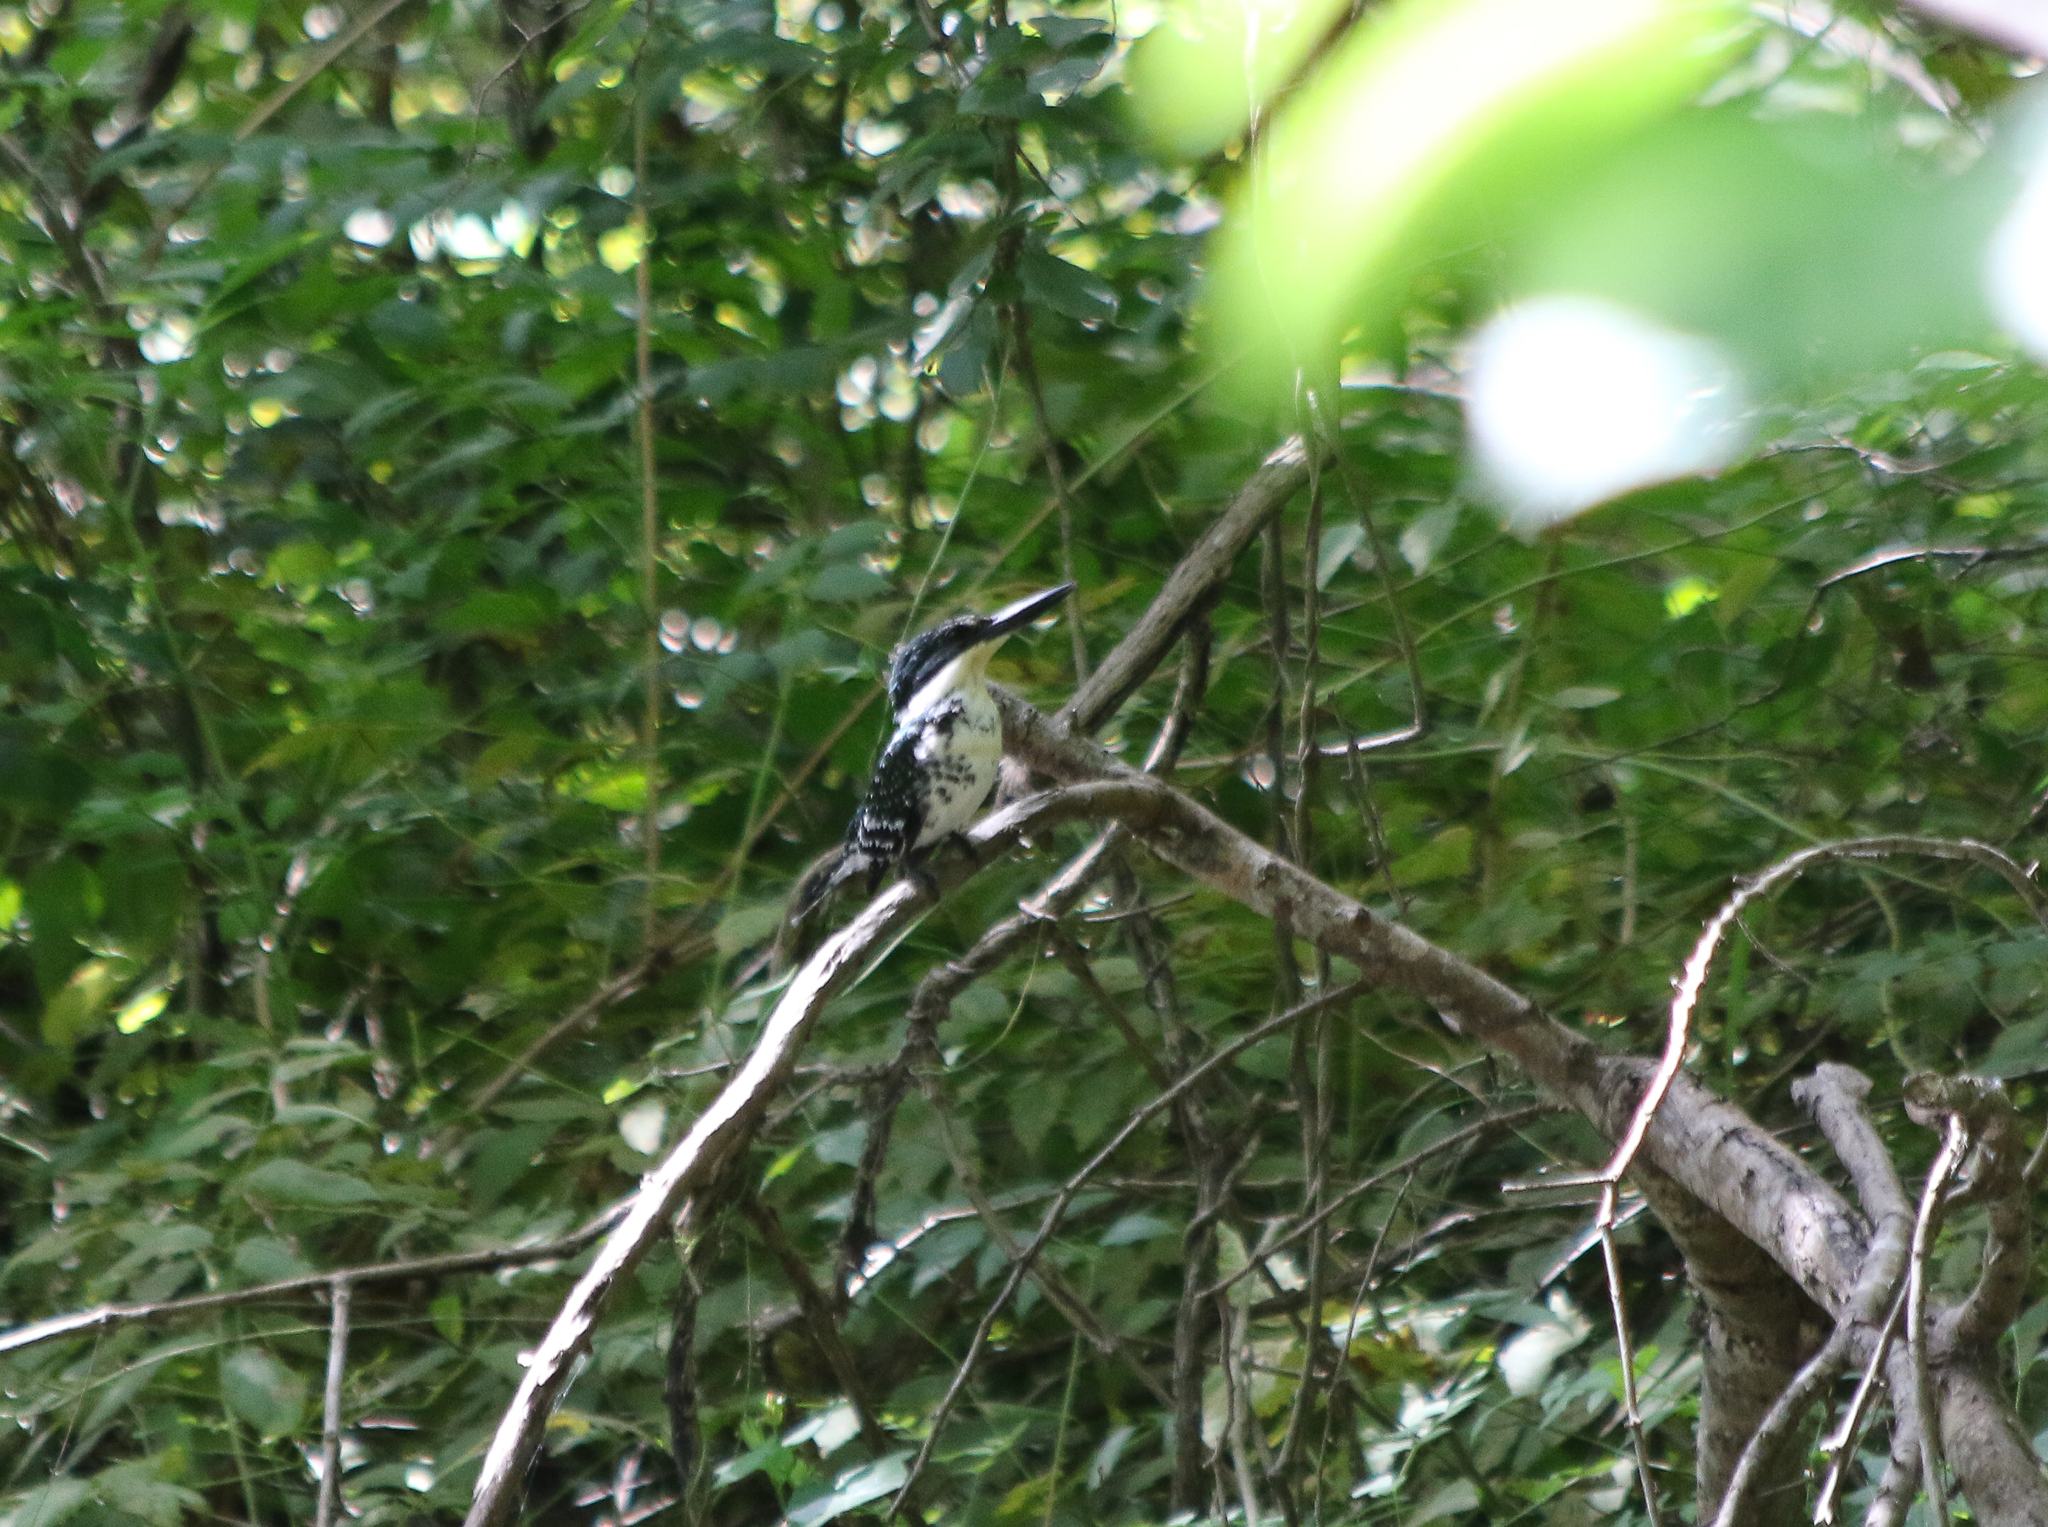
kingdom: Animalia
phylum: Chordata
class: Aves
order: Coraciiformes
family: Alcedinidae
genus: Chloroceryle
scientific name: Chloroceryle americana
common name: Green kingfisher
